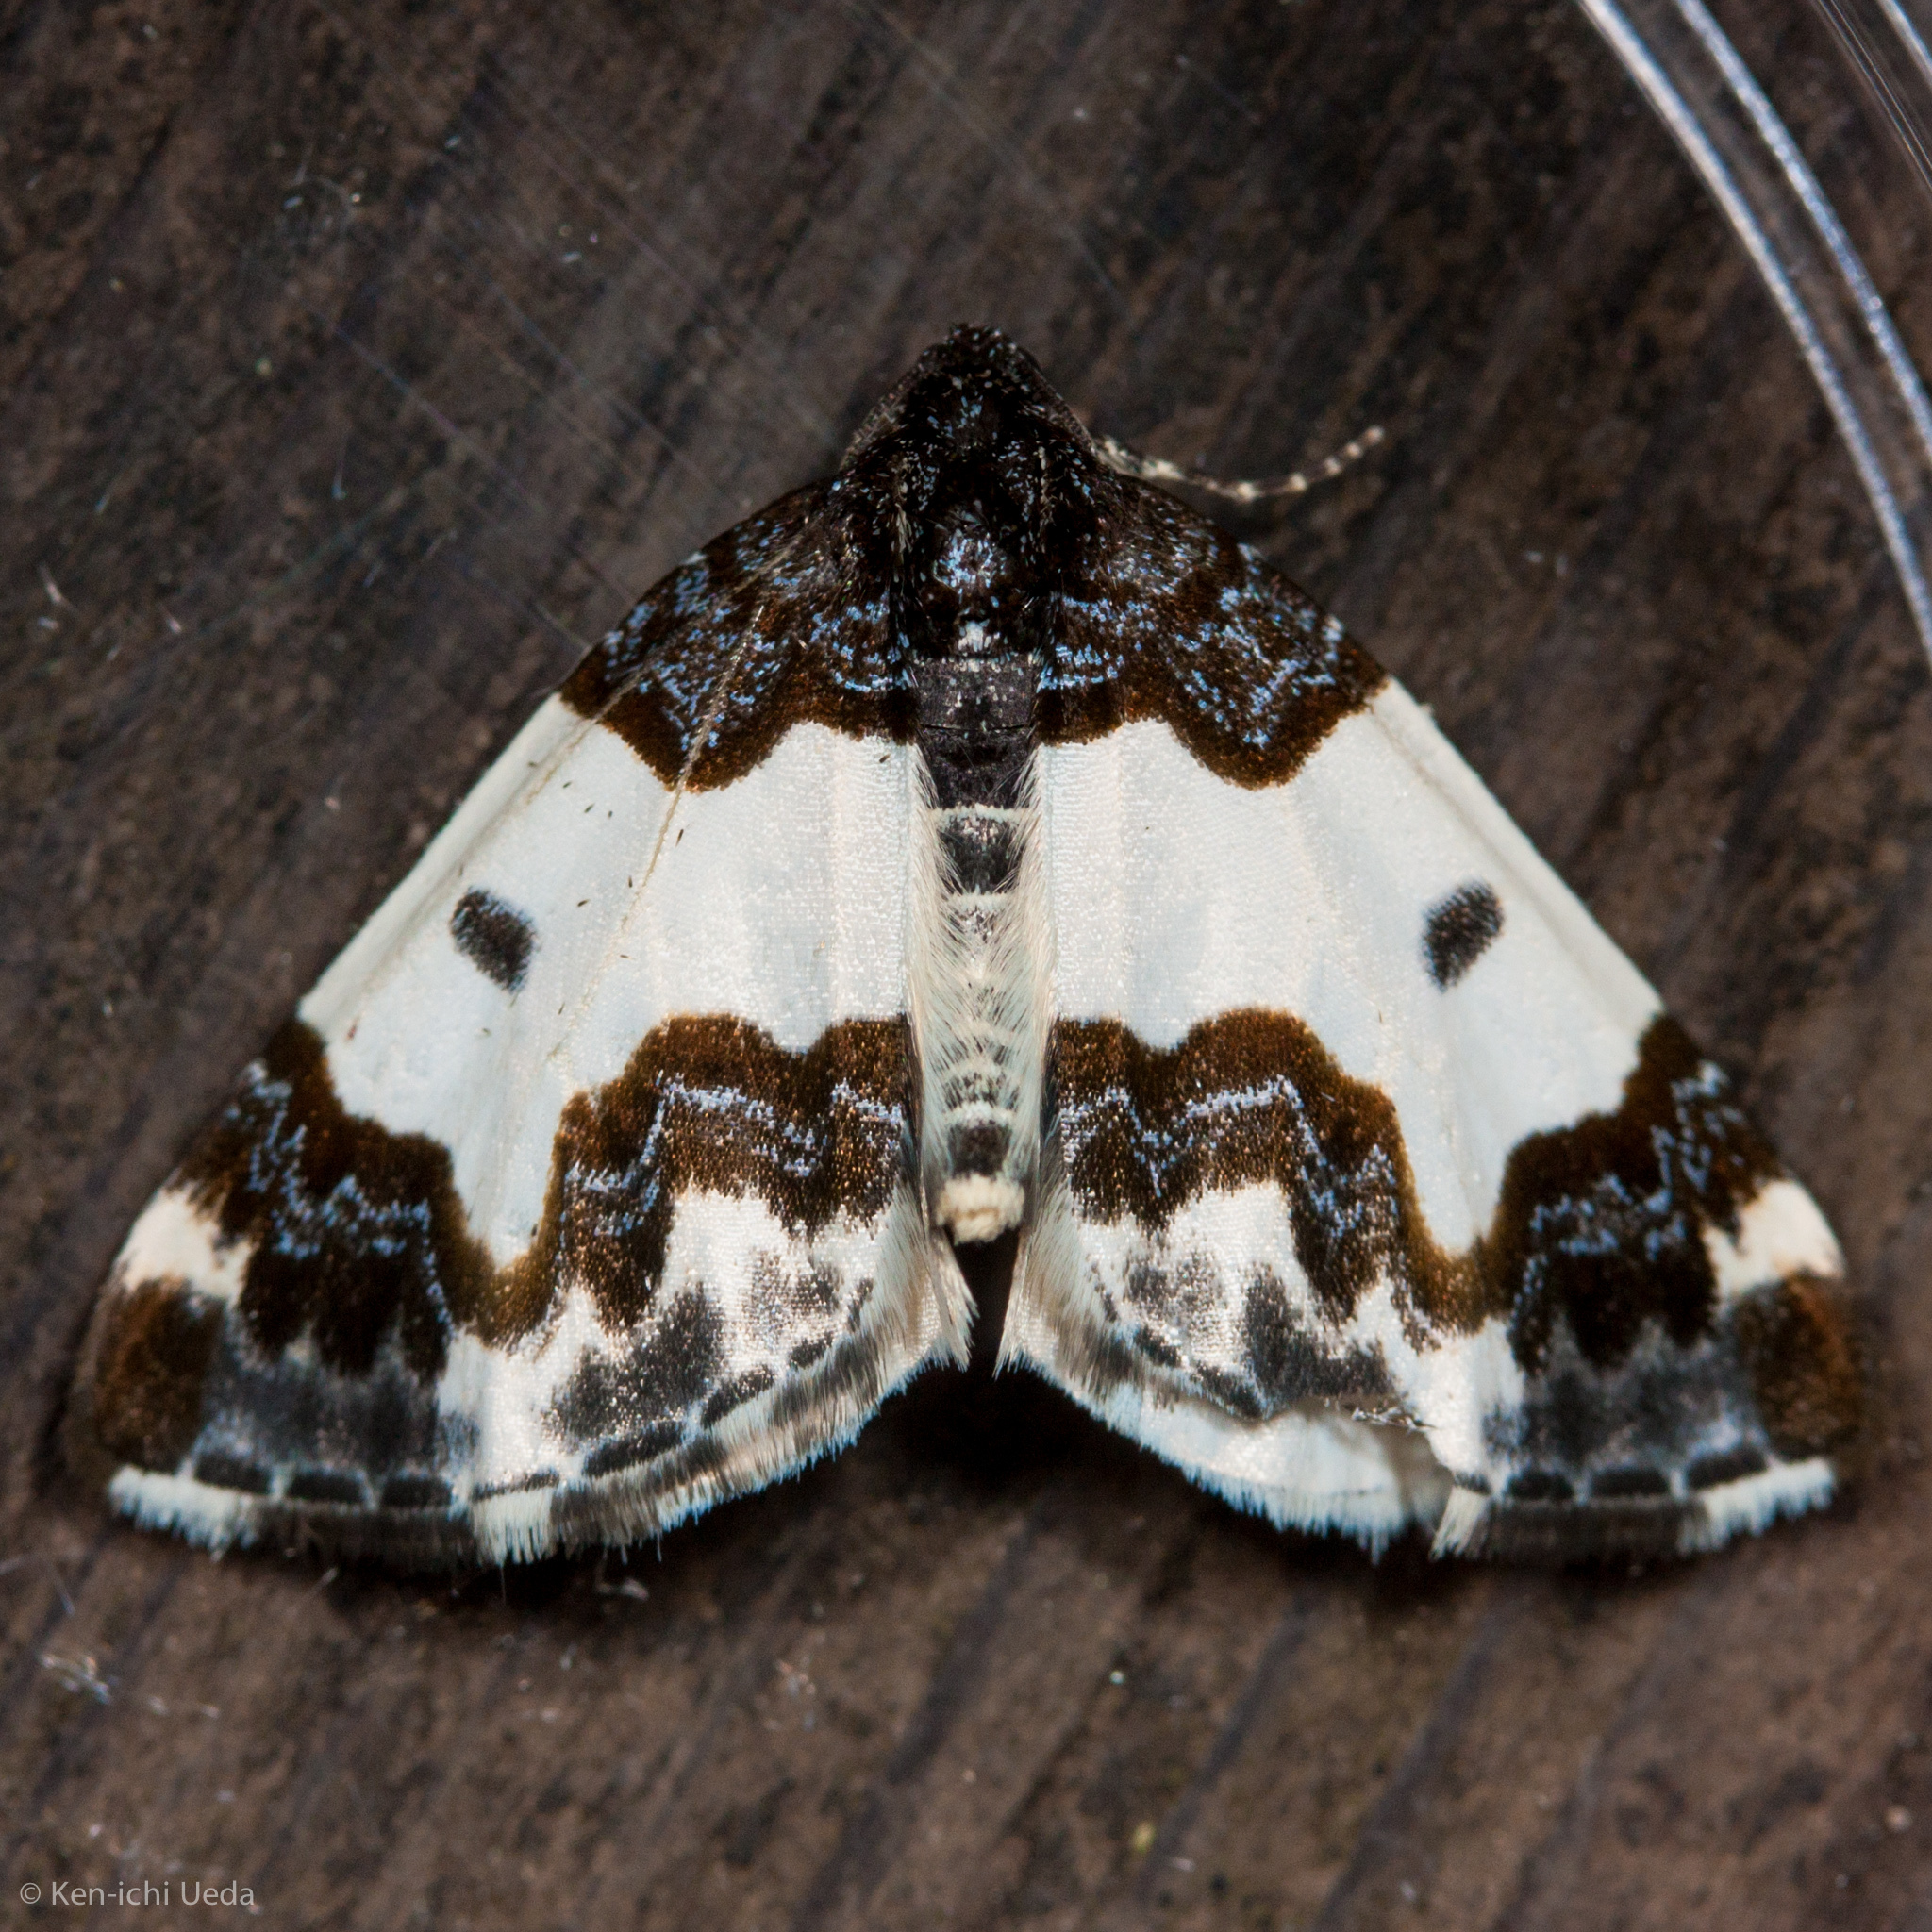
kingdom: Animalia
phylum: Arthropoda
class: Insecta
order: Lepidoptera
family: Geometridae
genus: Mesoleuca
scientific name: Mesoleuca gratulata
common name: Half-white carpet moth
